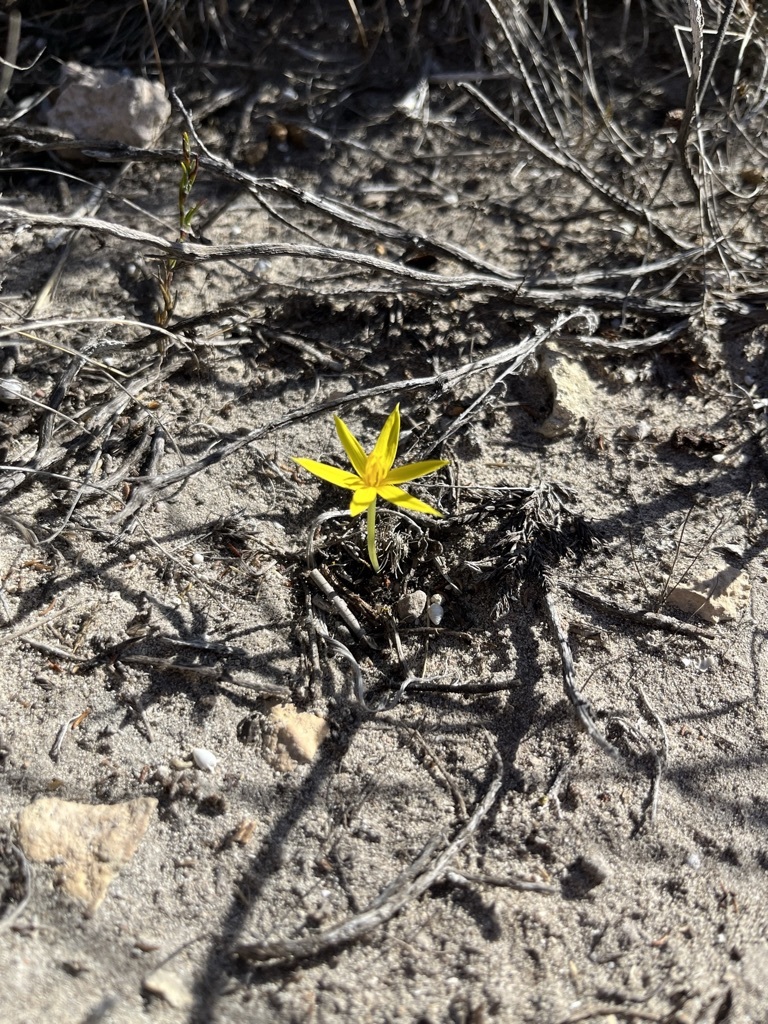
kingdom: Plantae
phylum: Tracheophyta
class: Liliopsida
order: Asparagales
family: Hypoxidaceae
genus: Empodium
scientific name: Empodium plicatum
